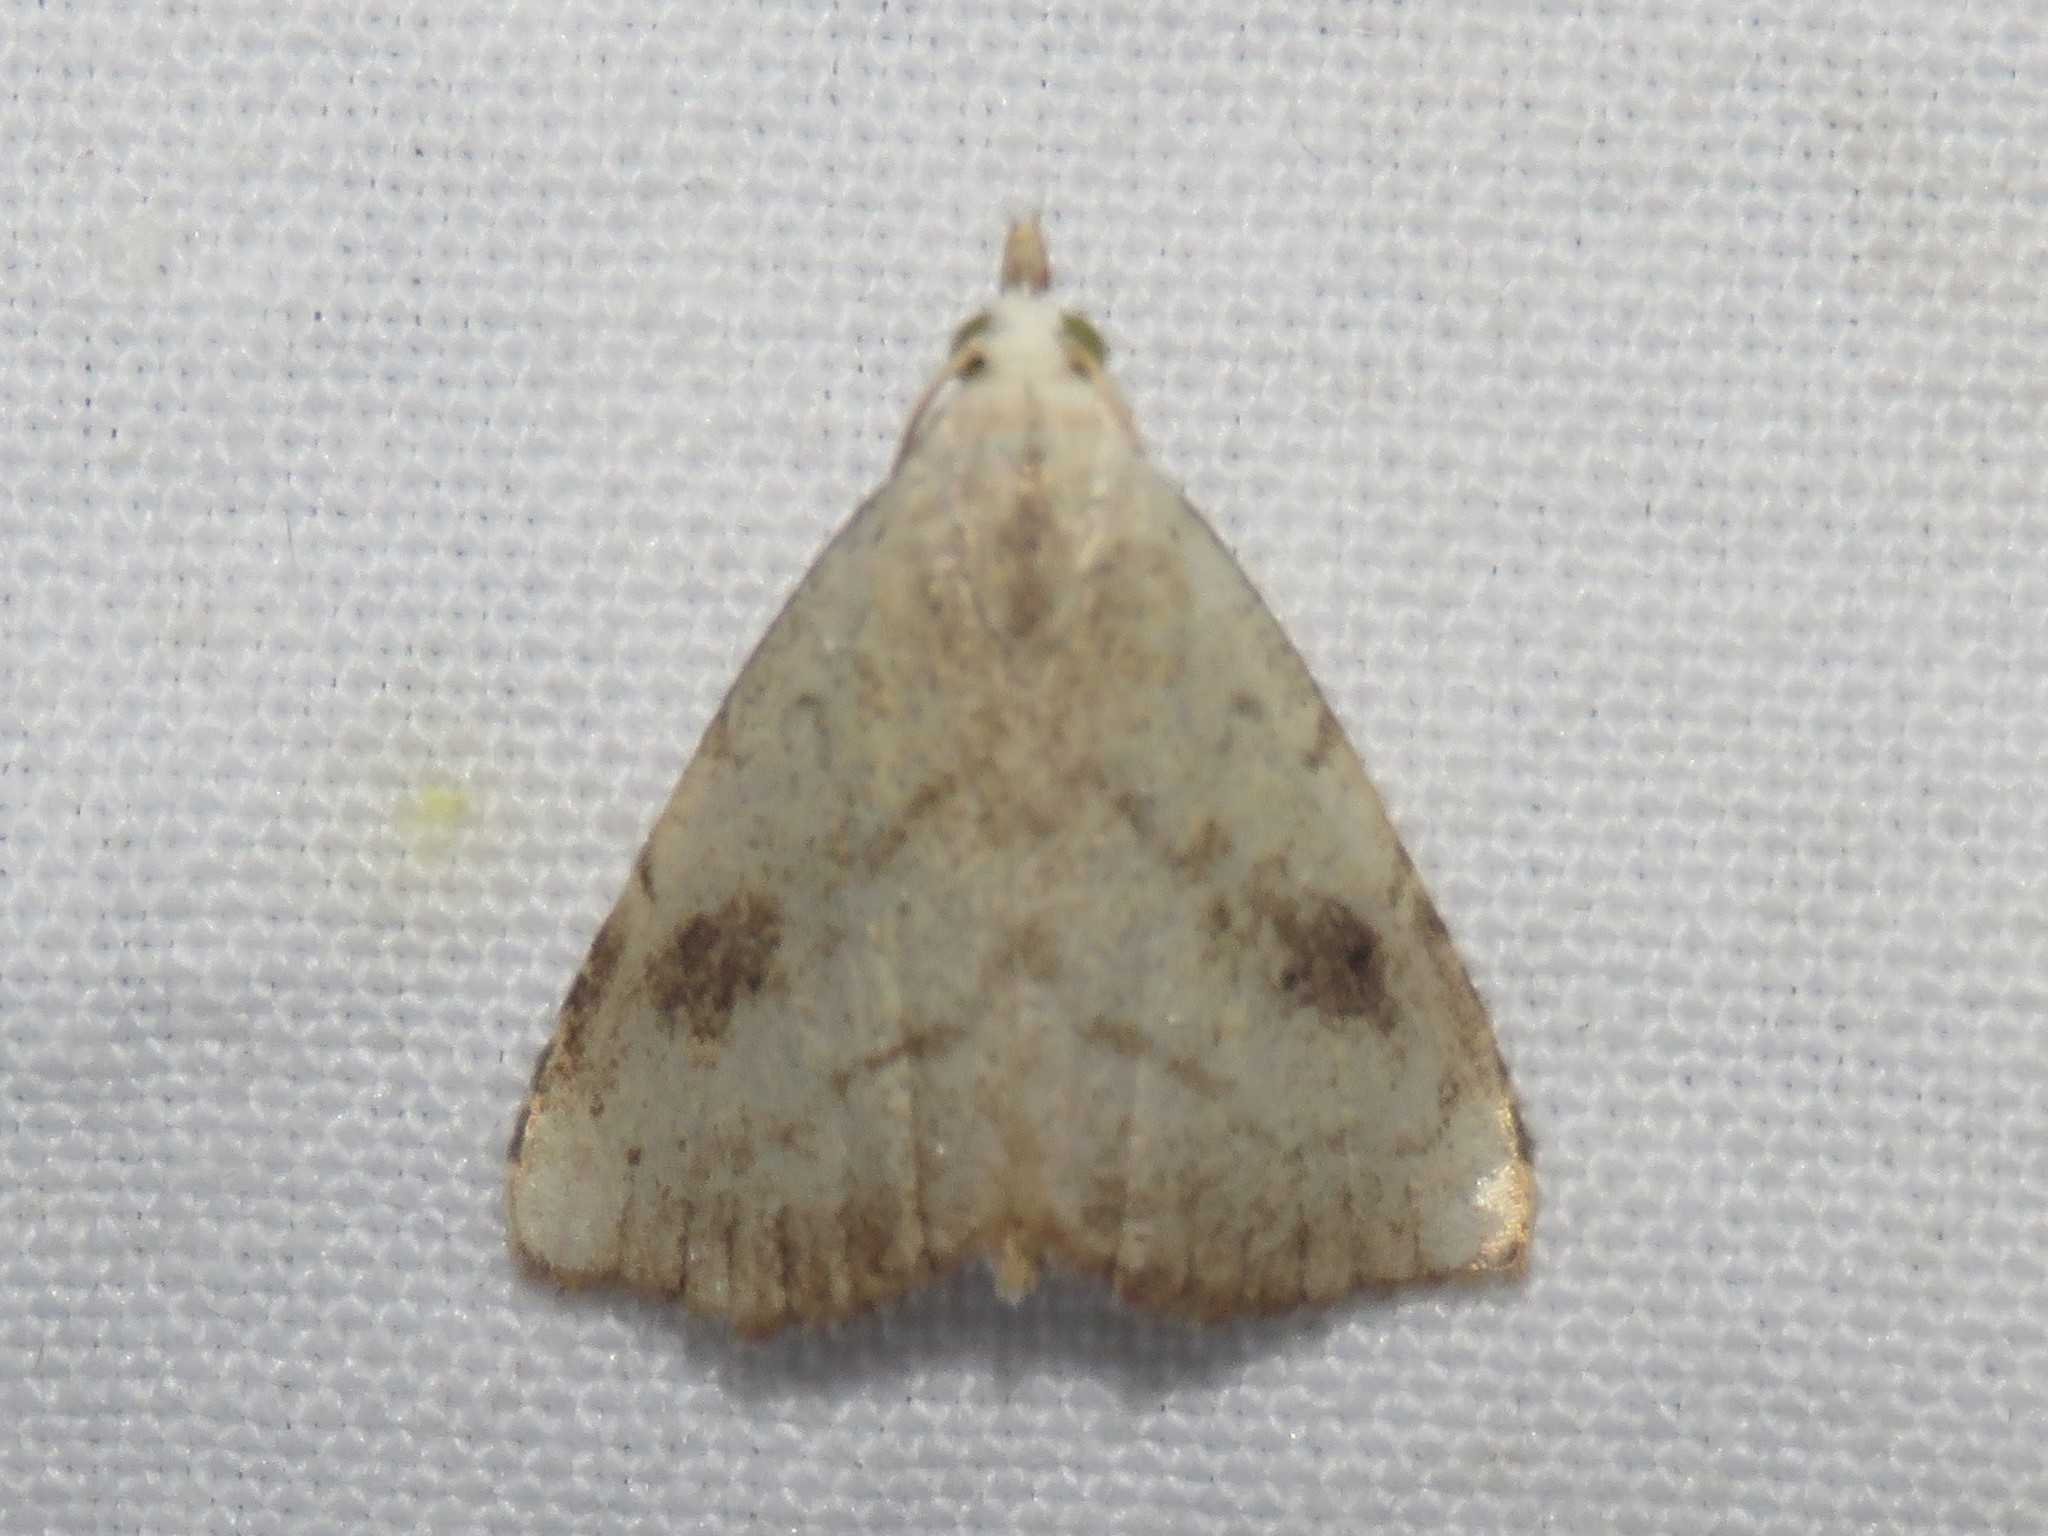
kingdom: Animalia
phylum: Arthropoda
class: Insecta
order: Lepidoptera
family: Erebidae
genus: Rivula
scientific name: Rivula propinqualis
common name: Spotted grass moth
